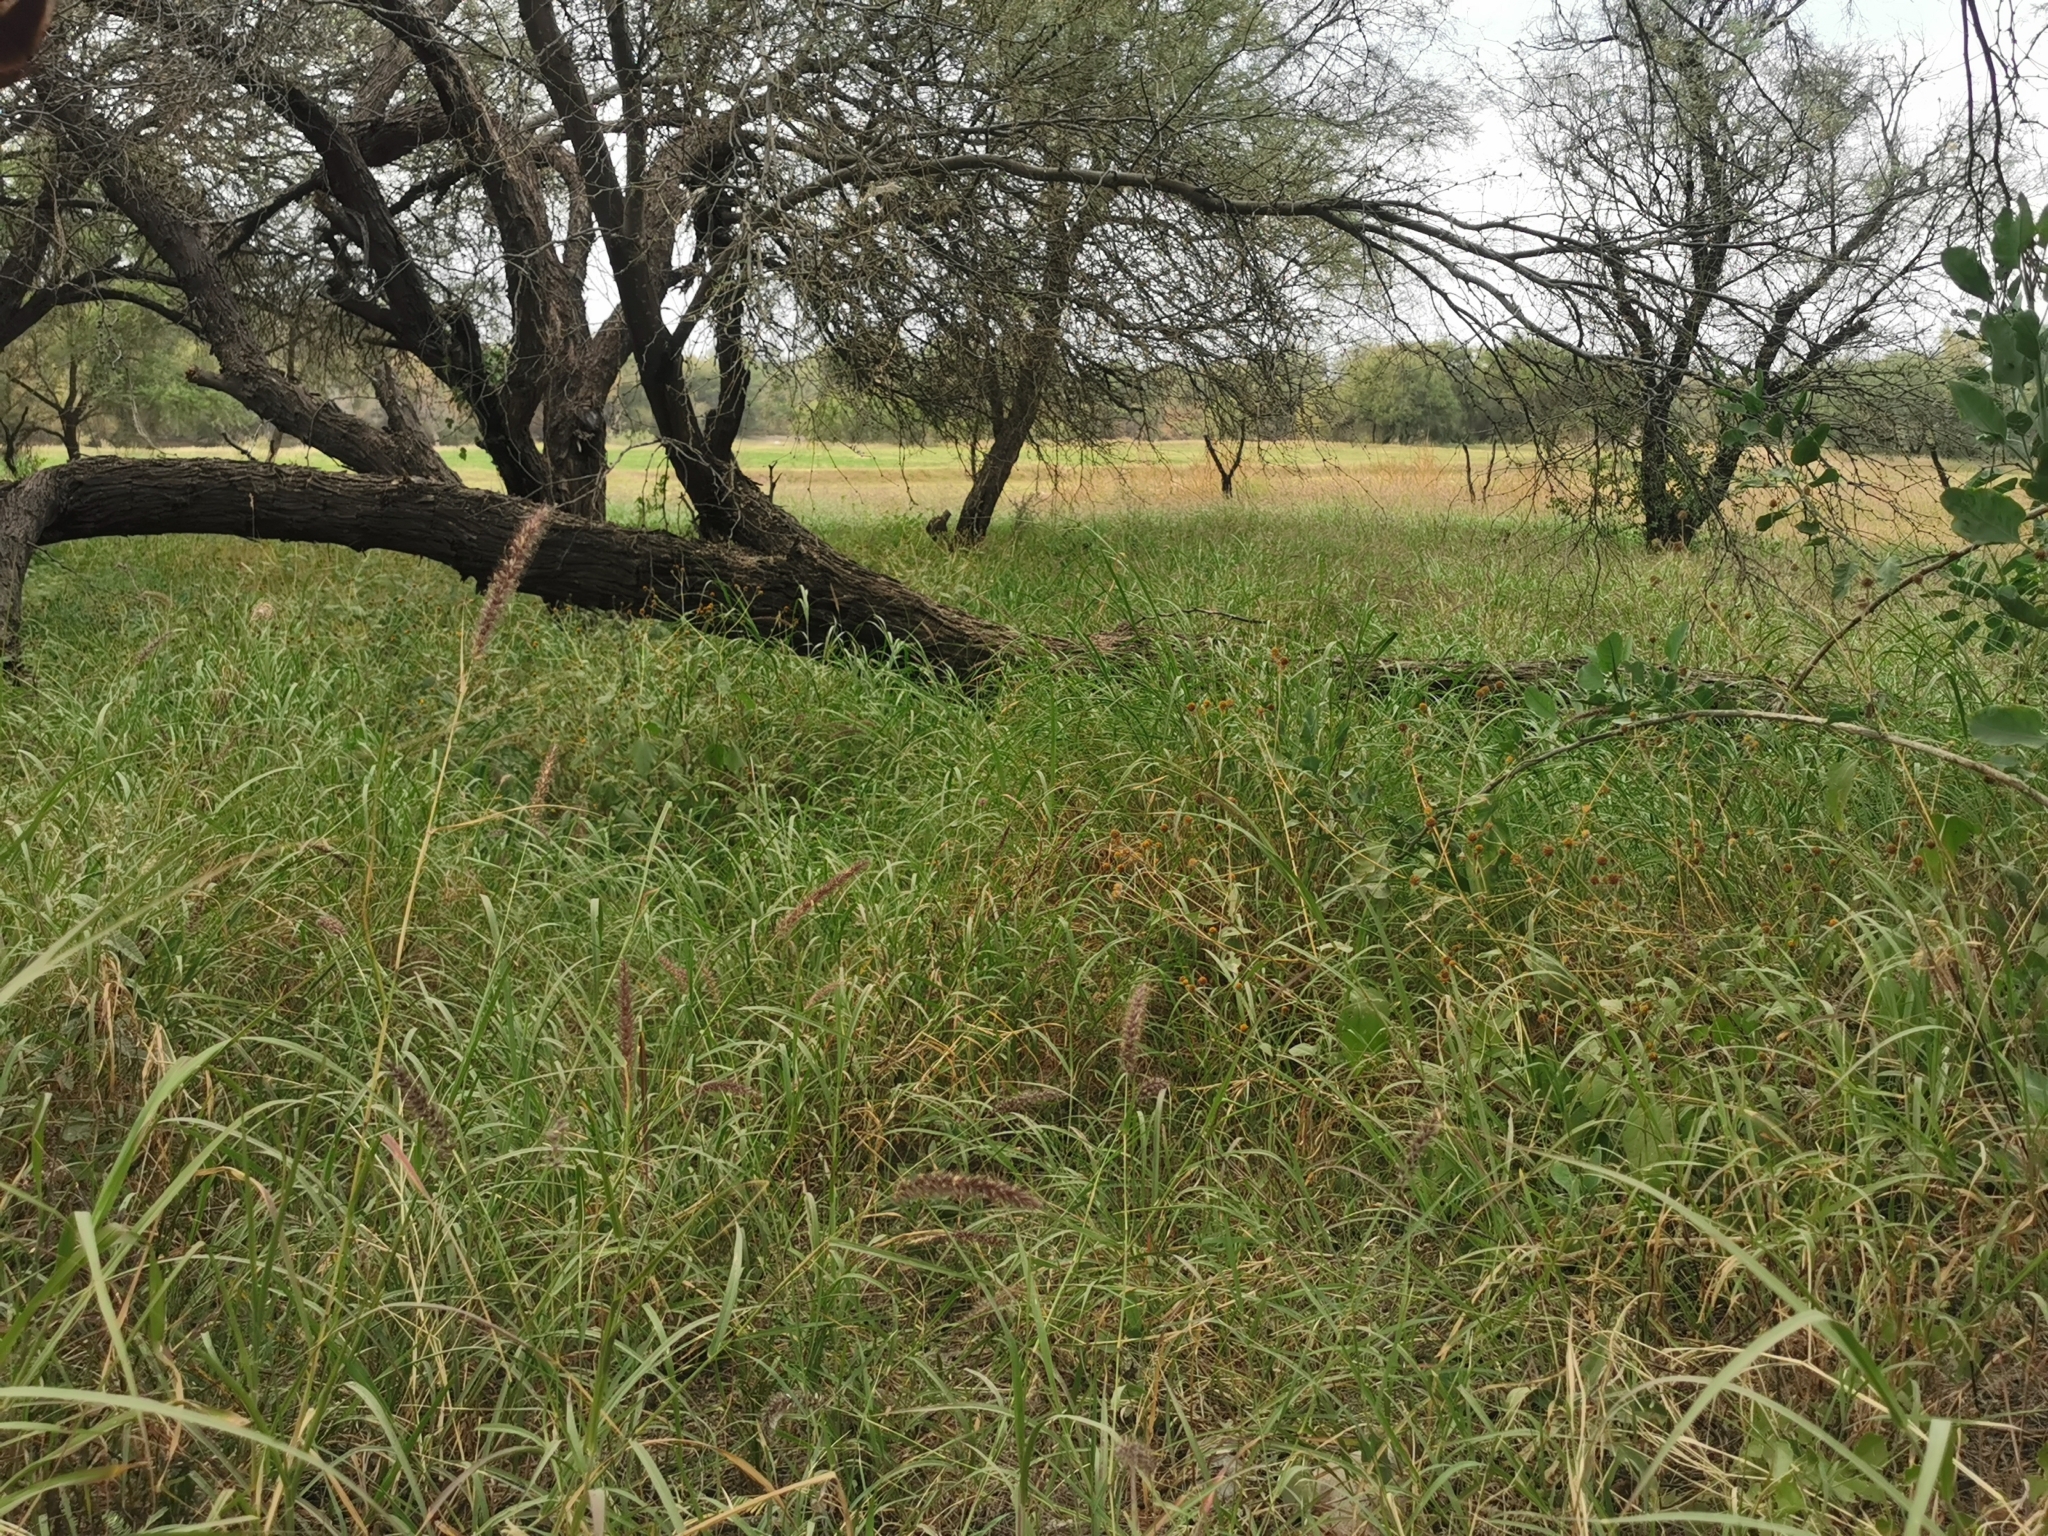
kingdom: Plantae
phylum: Tracheophyta
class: Liliopsida
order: Poales
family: Poaceae
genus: Cenchrus
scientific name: Cenchrus ciliaris
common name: Buffelgrass
